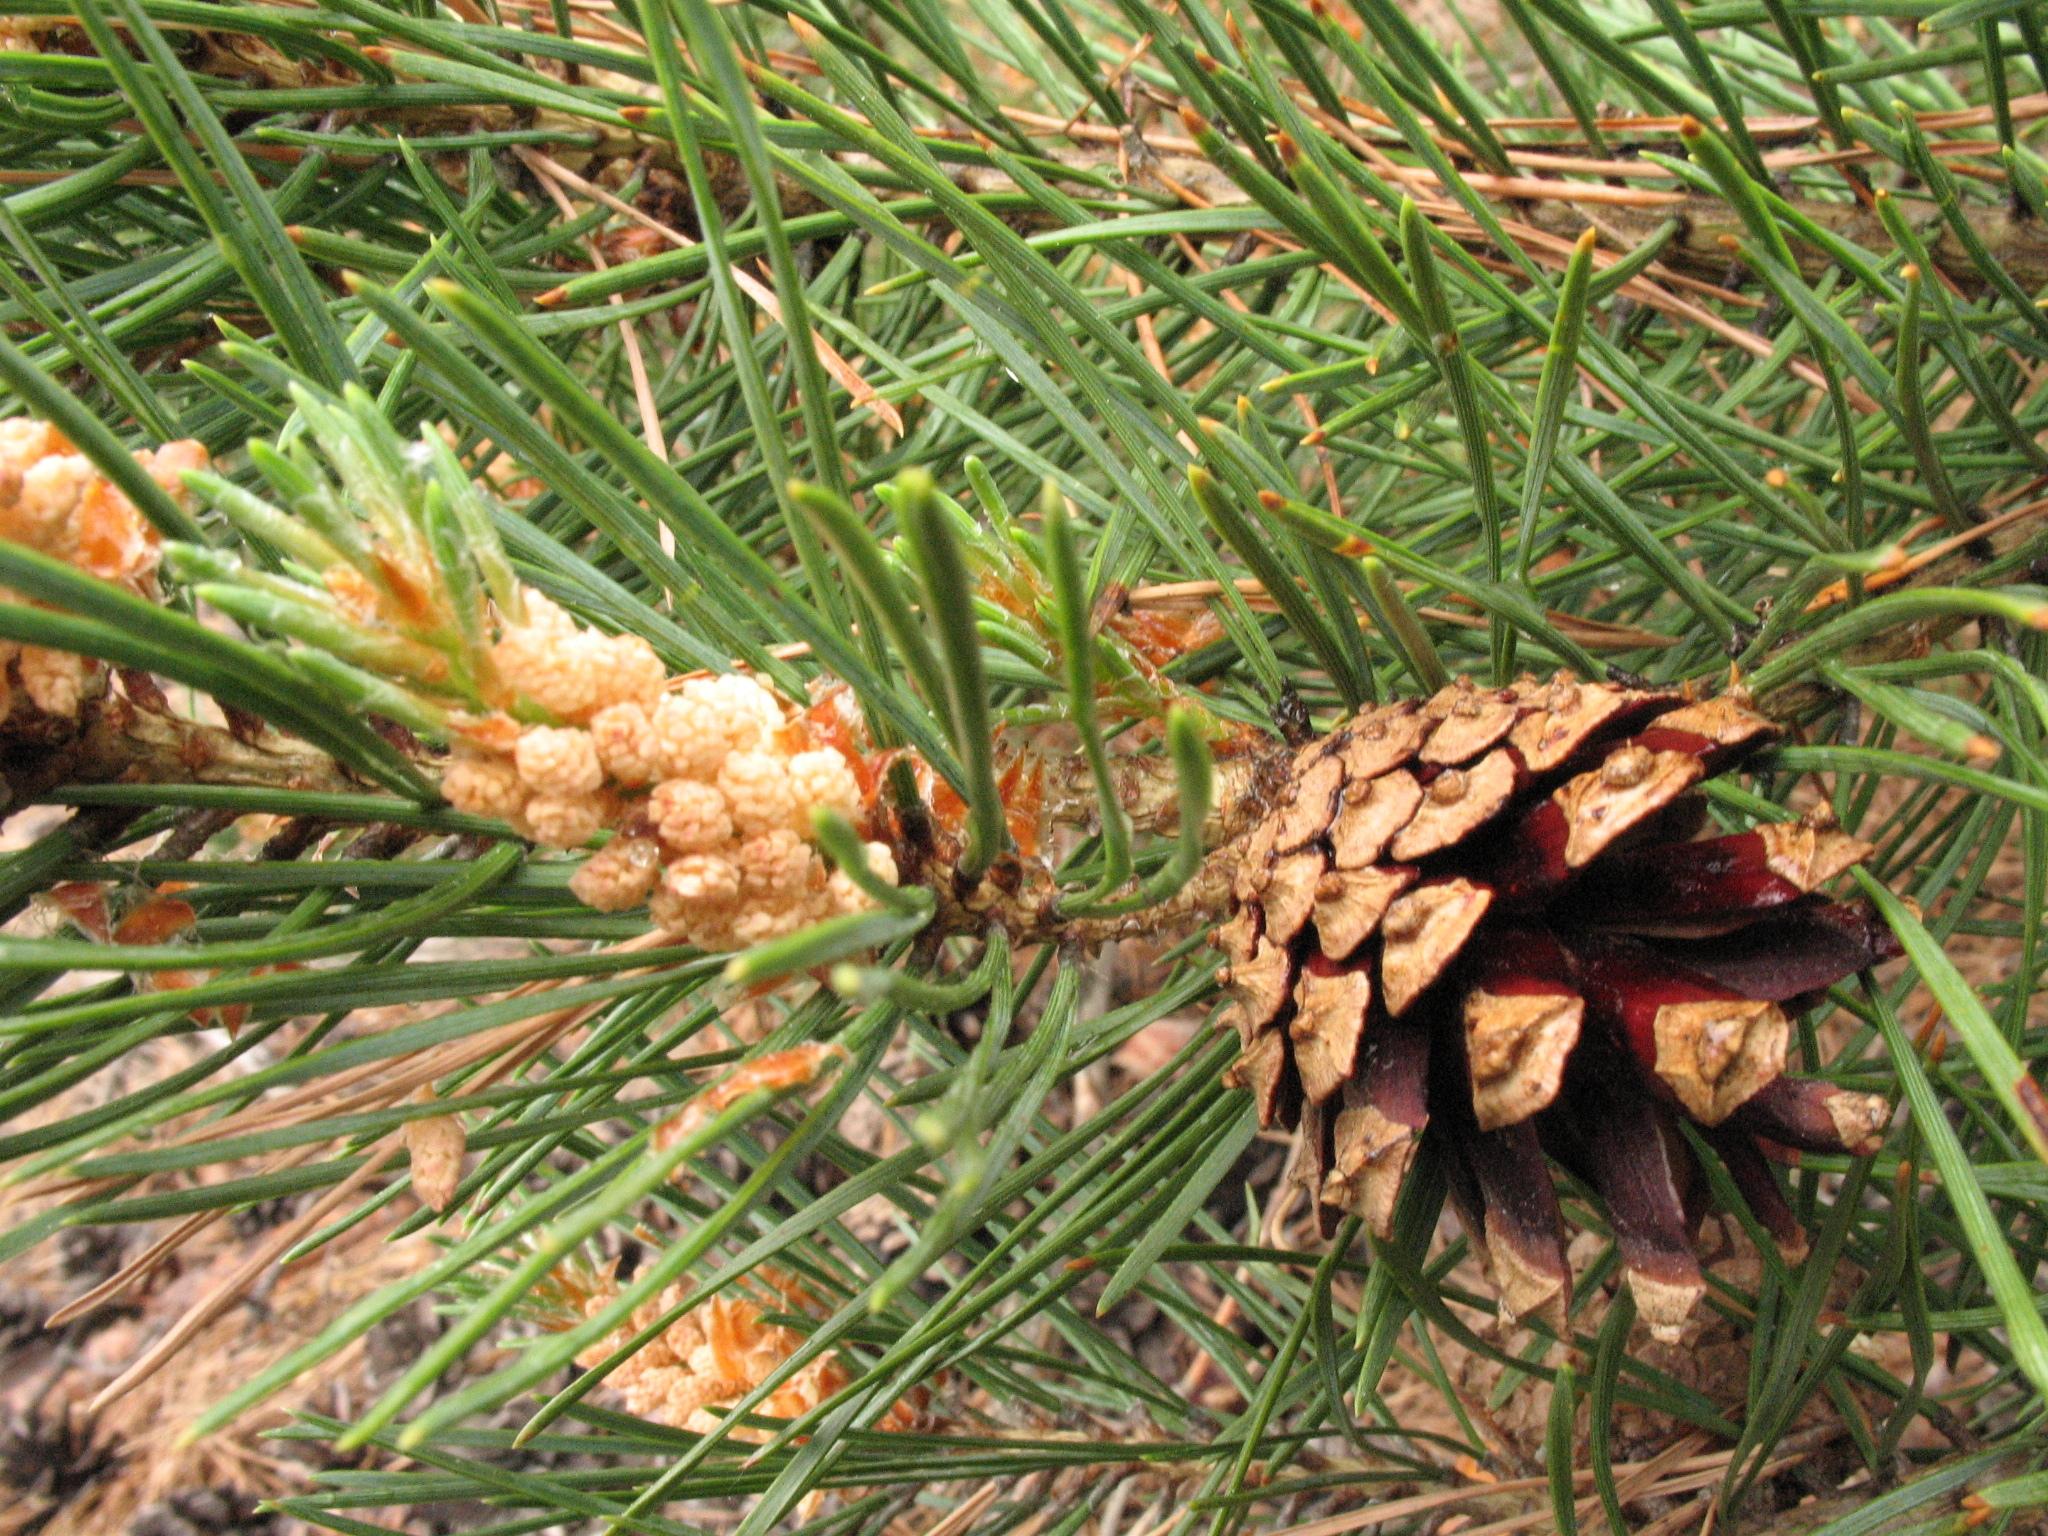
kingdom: Plantae
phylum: Tracheophyta
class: Pinopsida
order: Pinales
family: Pinaceae
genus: Pinus
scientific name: Pinus sylvestris
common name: Scots pine
